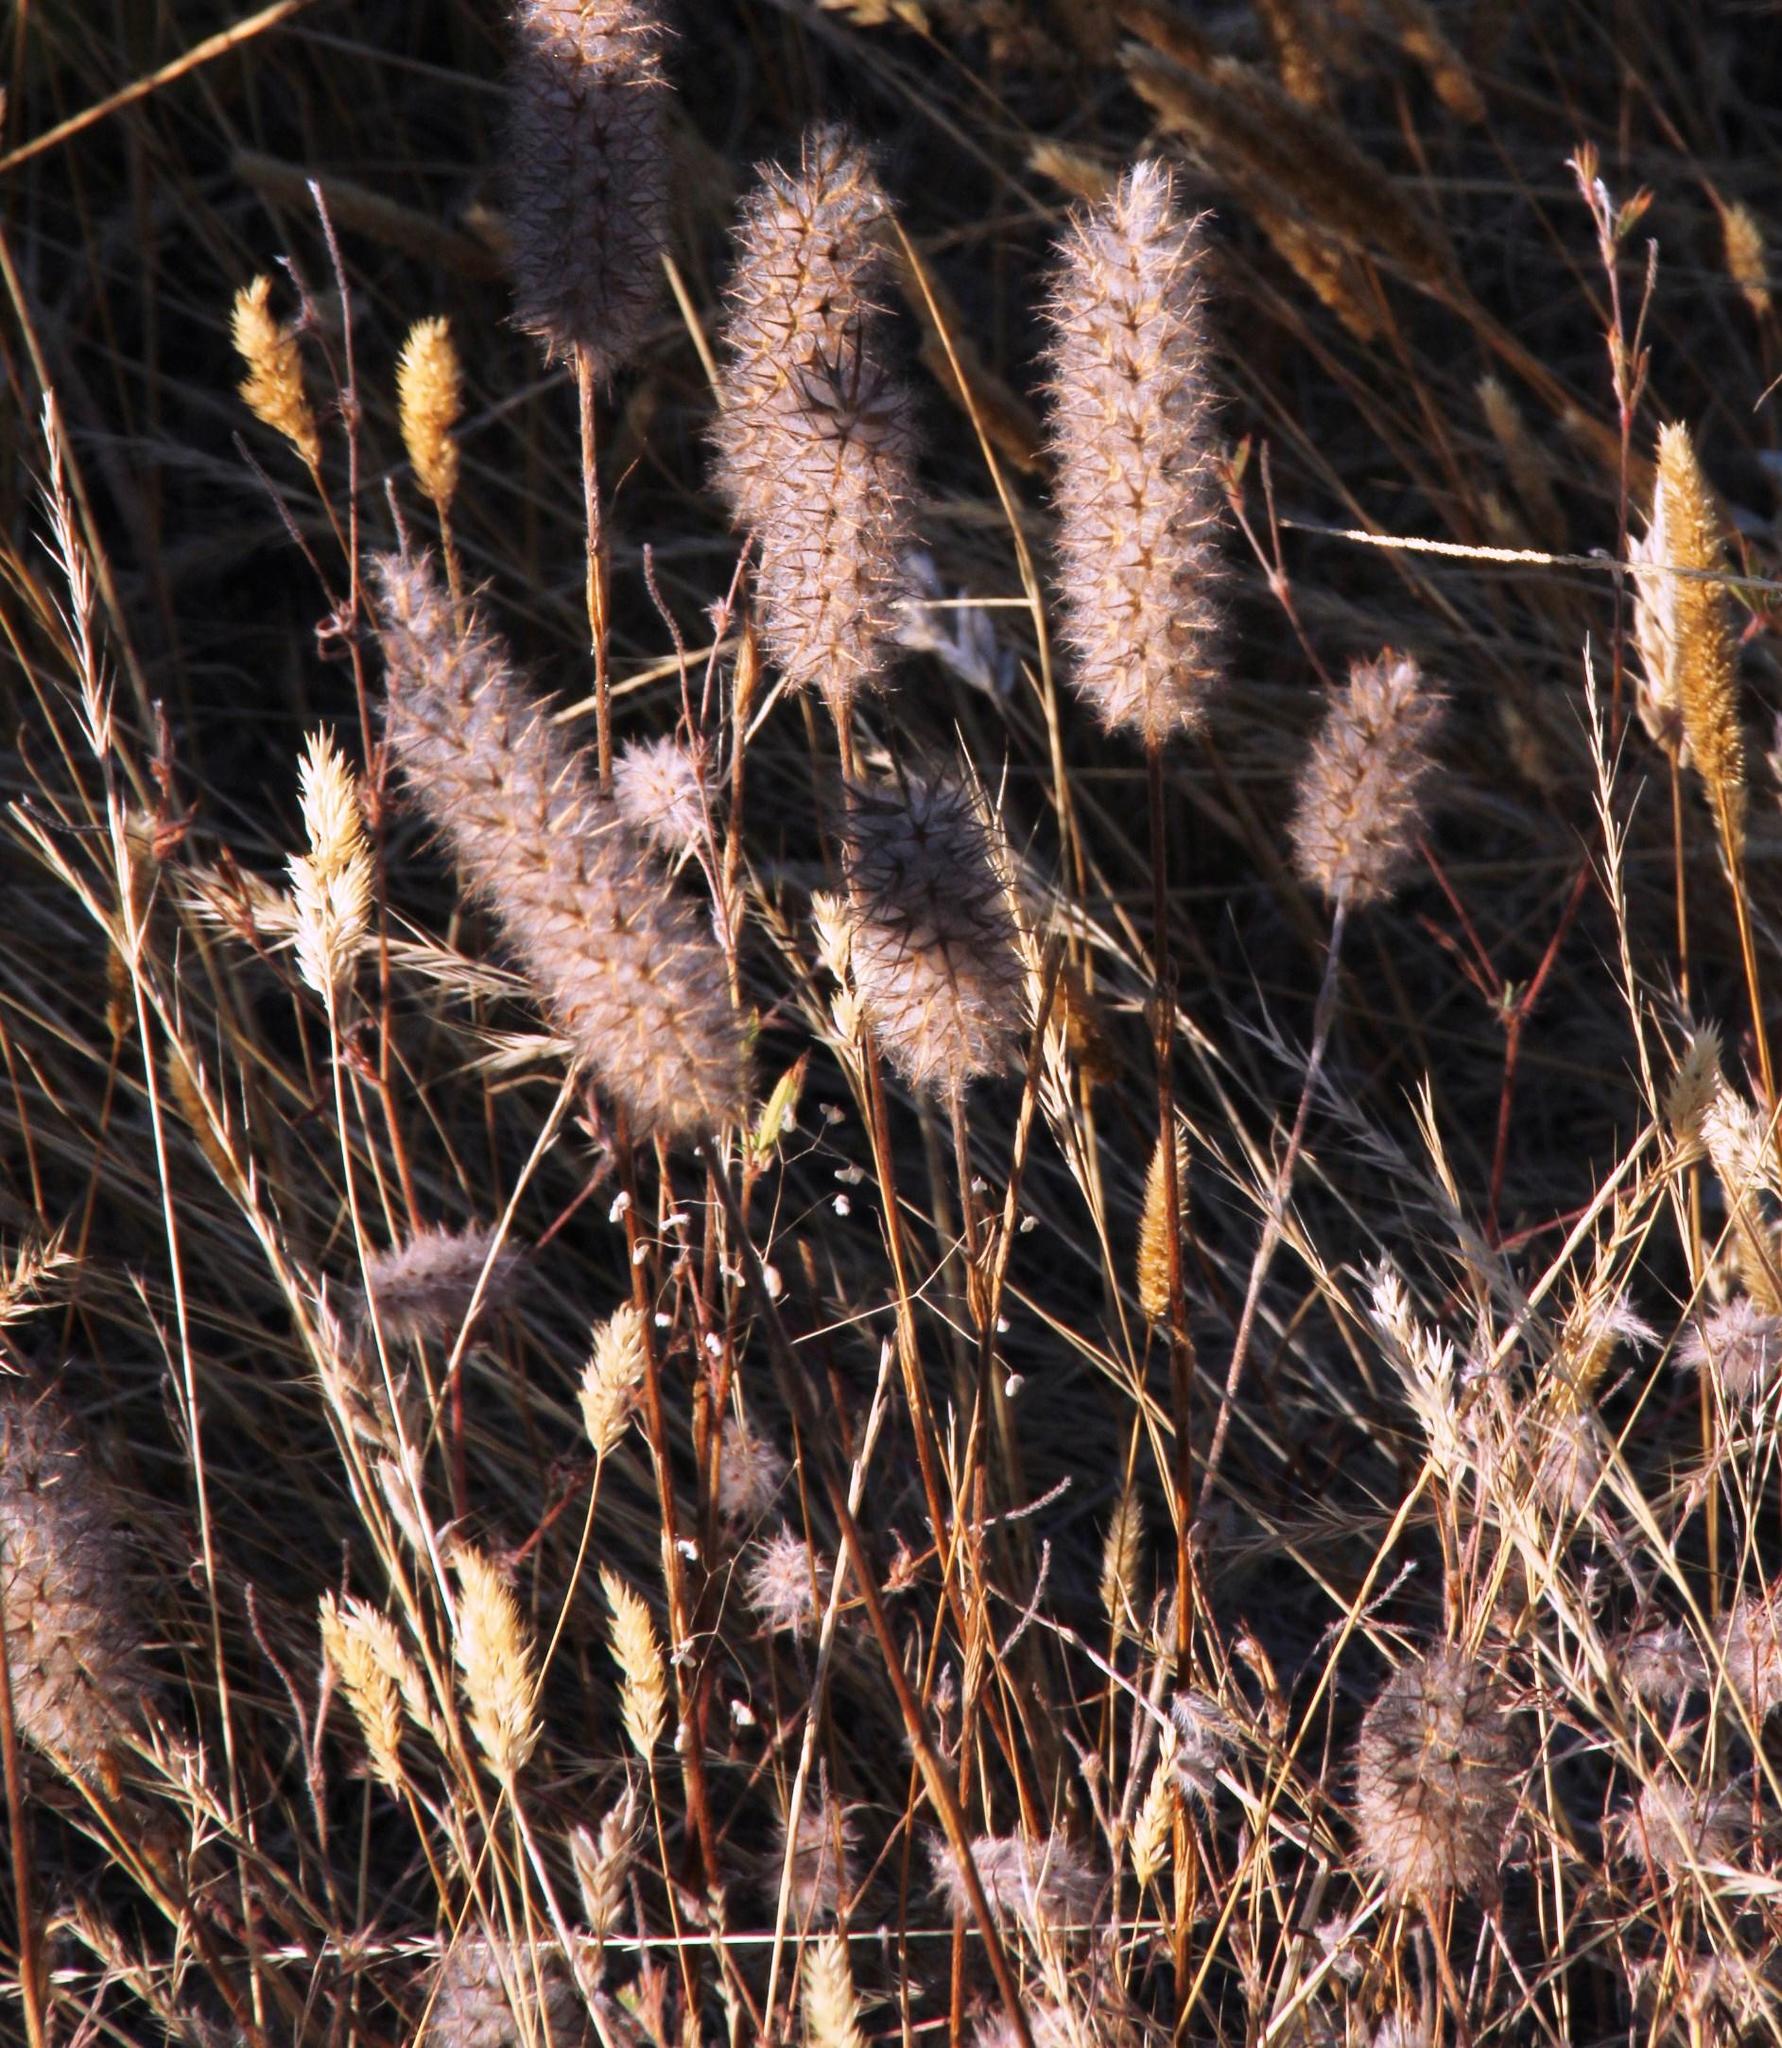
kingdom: Plantae
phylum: Tracheophyta
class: Magnoliopsida
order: Fabales
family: Fabaceae
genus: Trifolium
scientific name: Trifolium angustifolium
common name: Narrow clover
